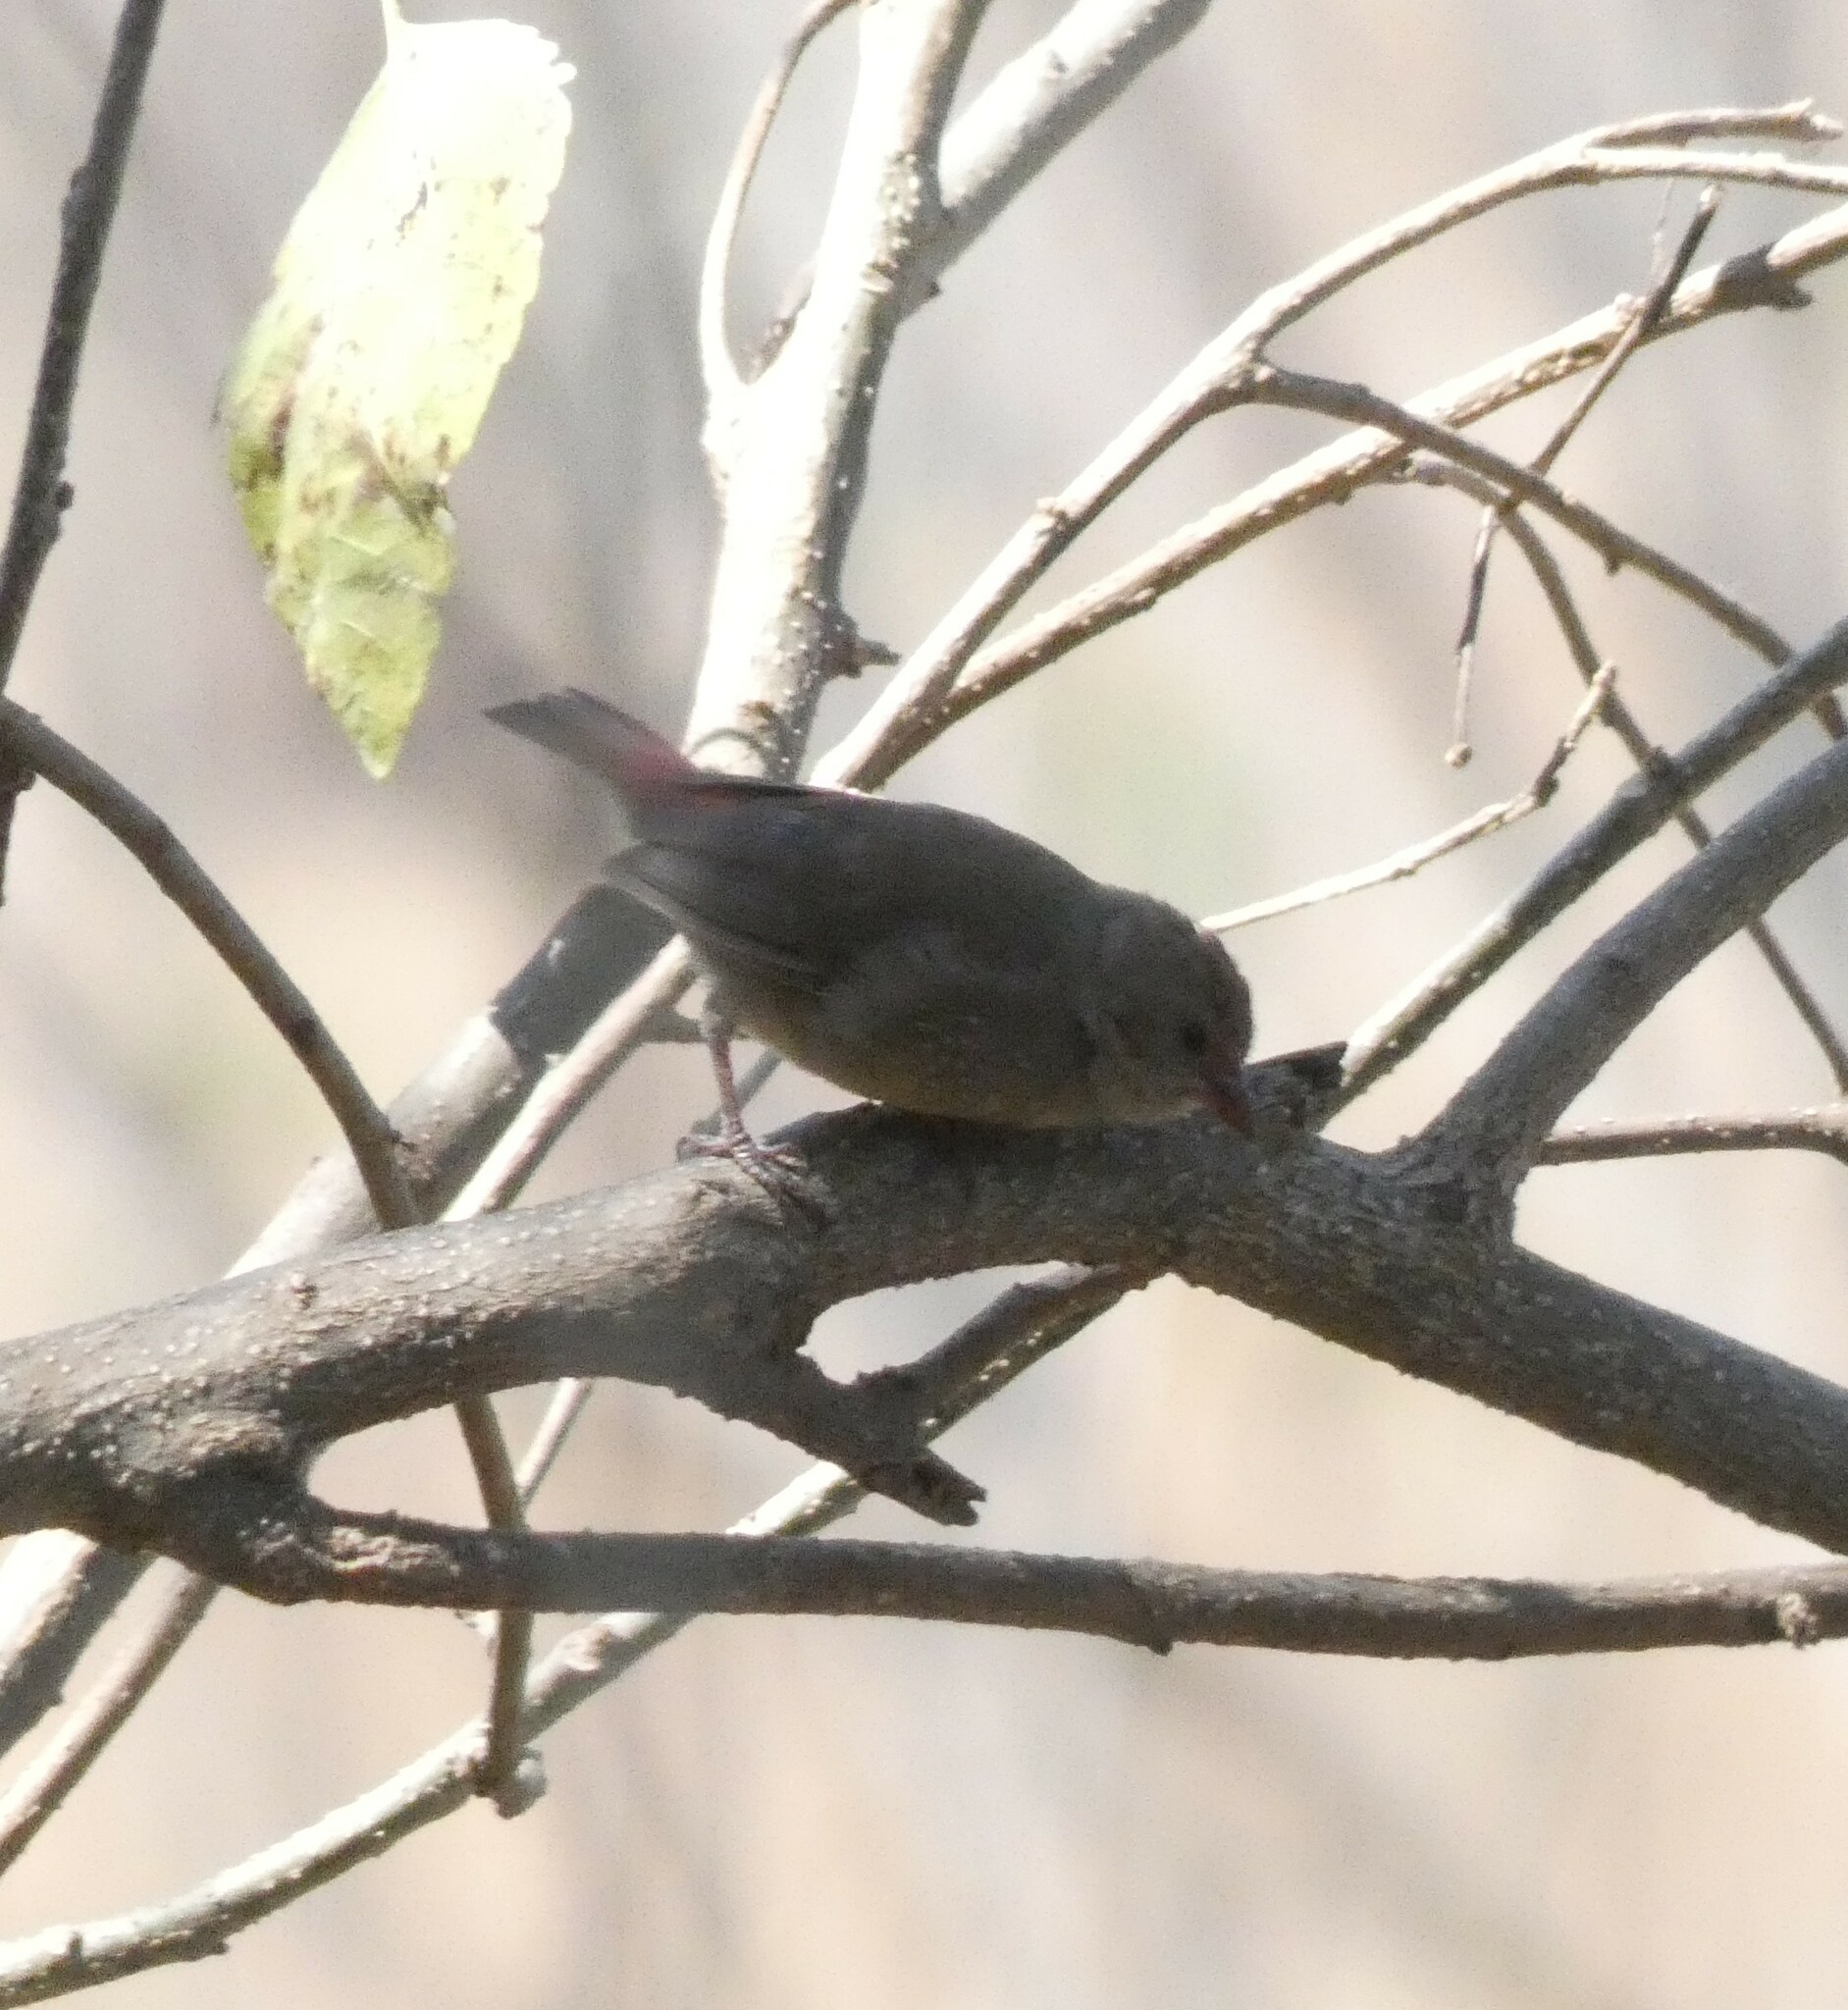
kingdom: Animalia
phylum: Chordata
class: Aves
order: Passeriformes
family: Estrildidae
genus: Lagonosticta
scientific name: Lagonosticta senegala
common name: Red-billed firefinch
